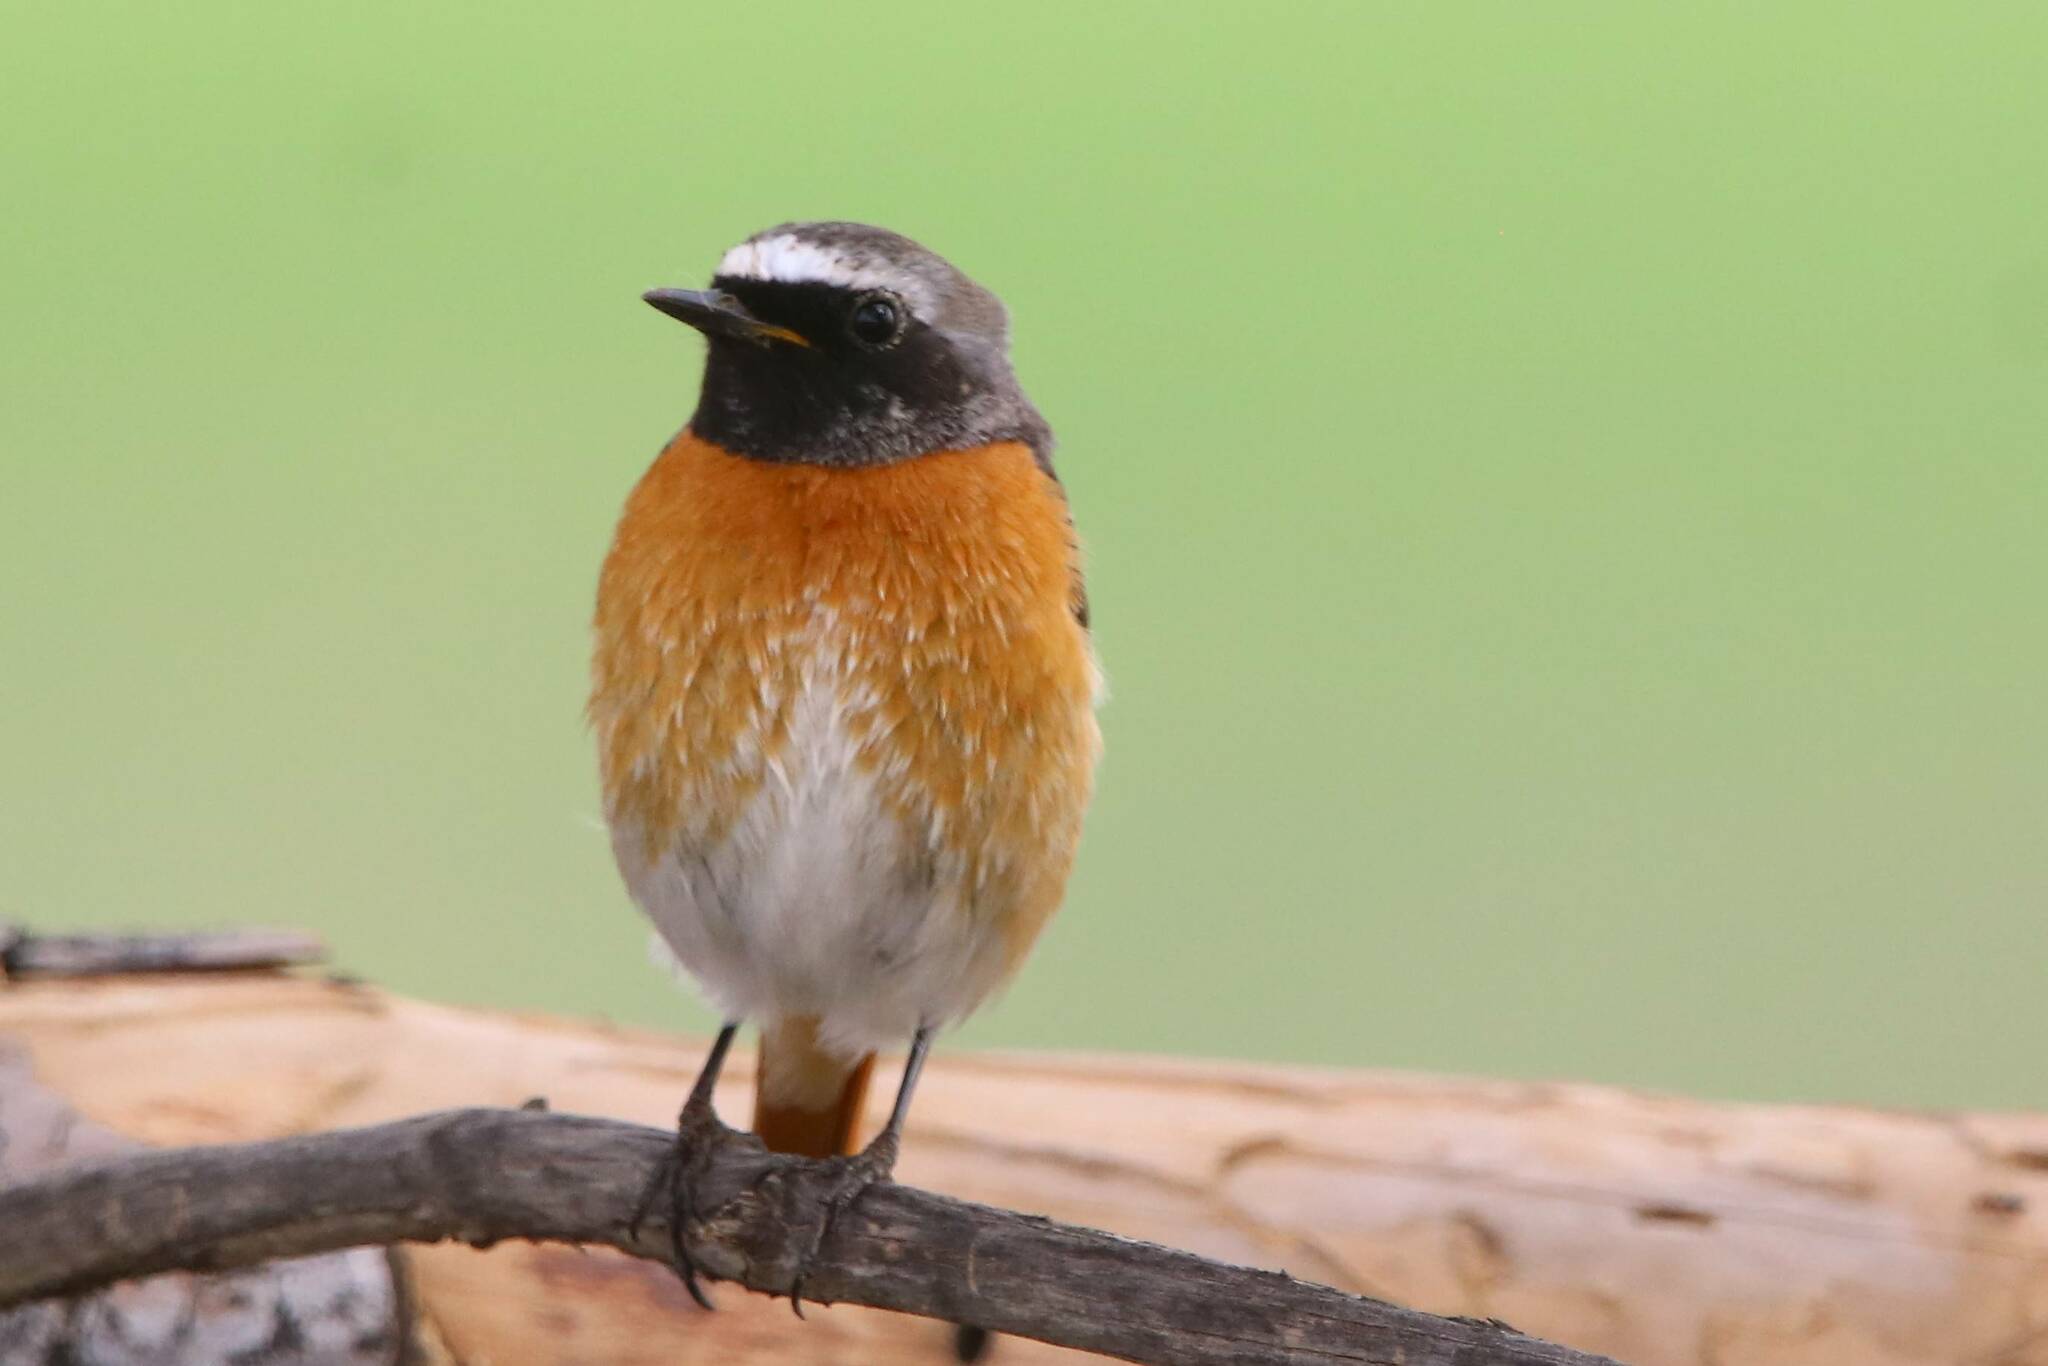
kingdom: Animalia
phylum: Chordata
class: Aves
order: Passeriformes
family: Muscicapidae
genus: Phoenicurus
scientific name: Phoenicurus phoenicurus
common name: Common redstart
